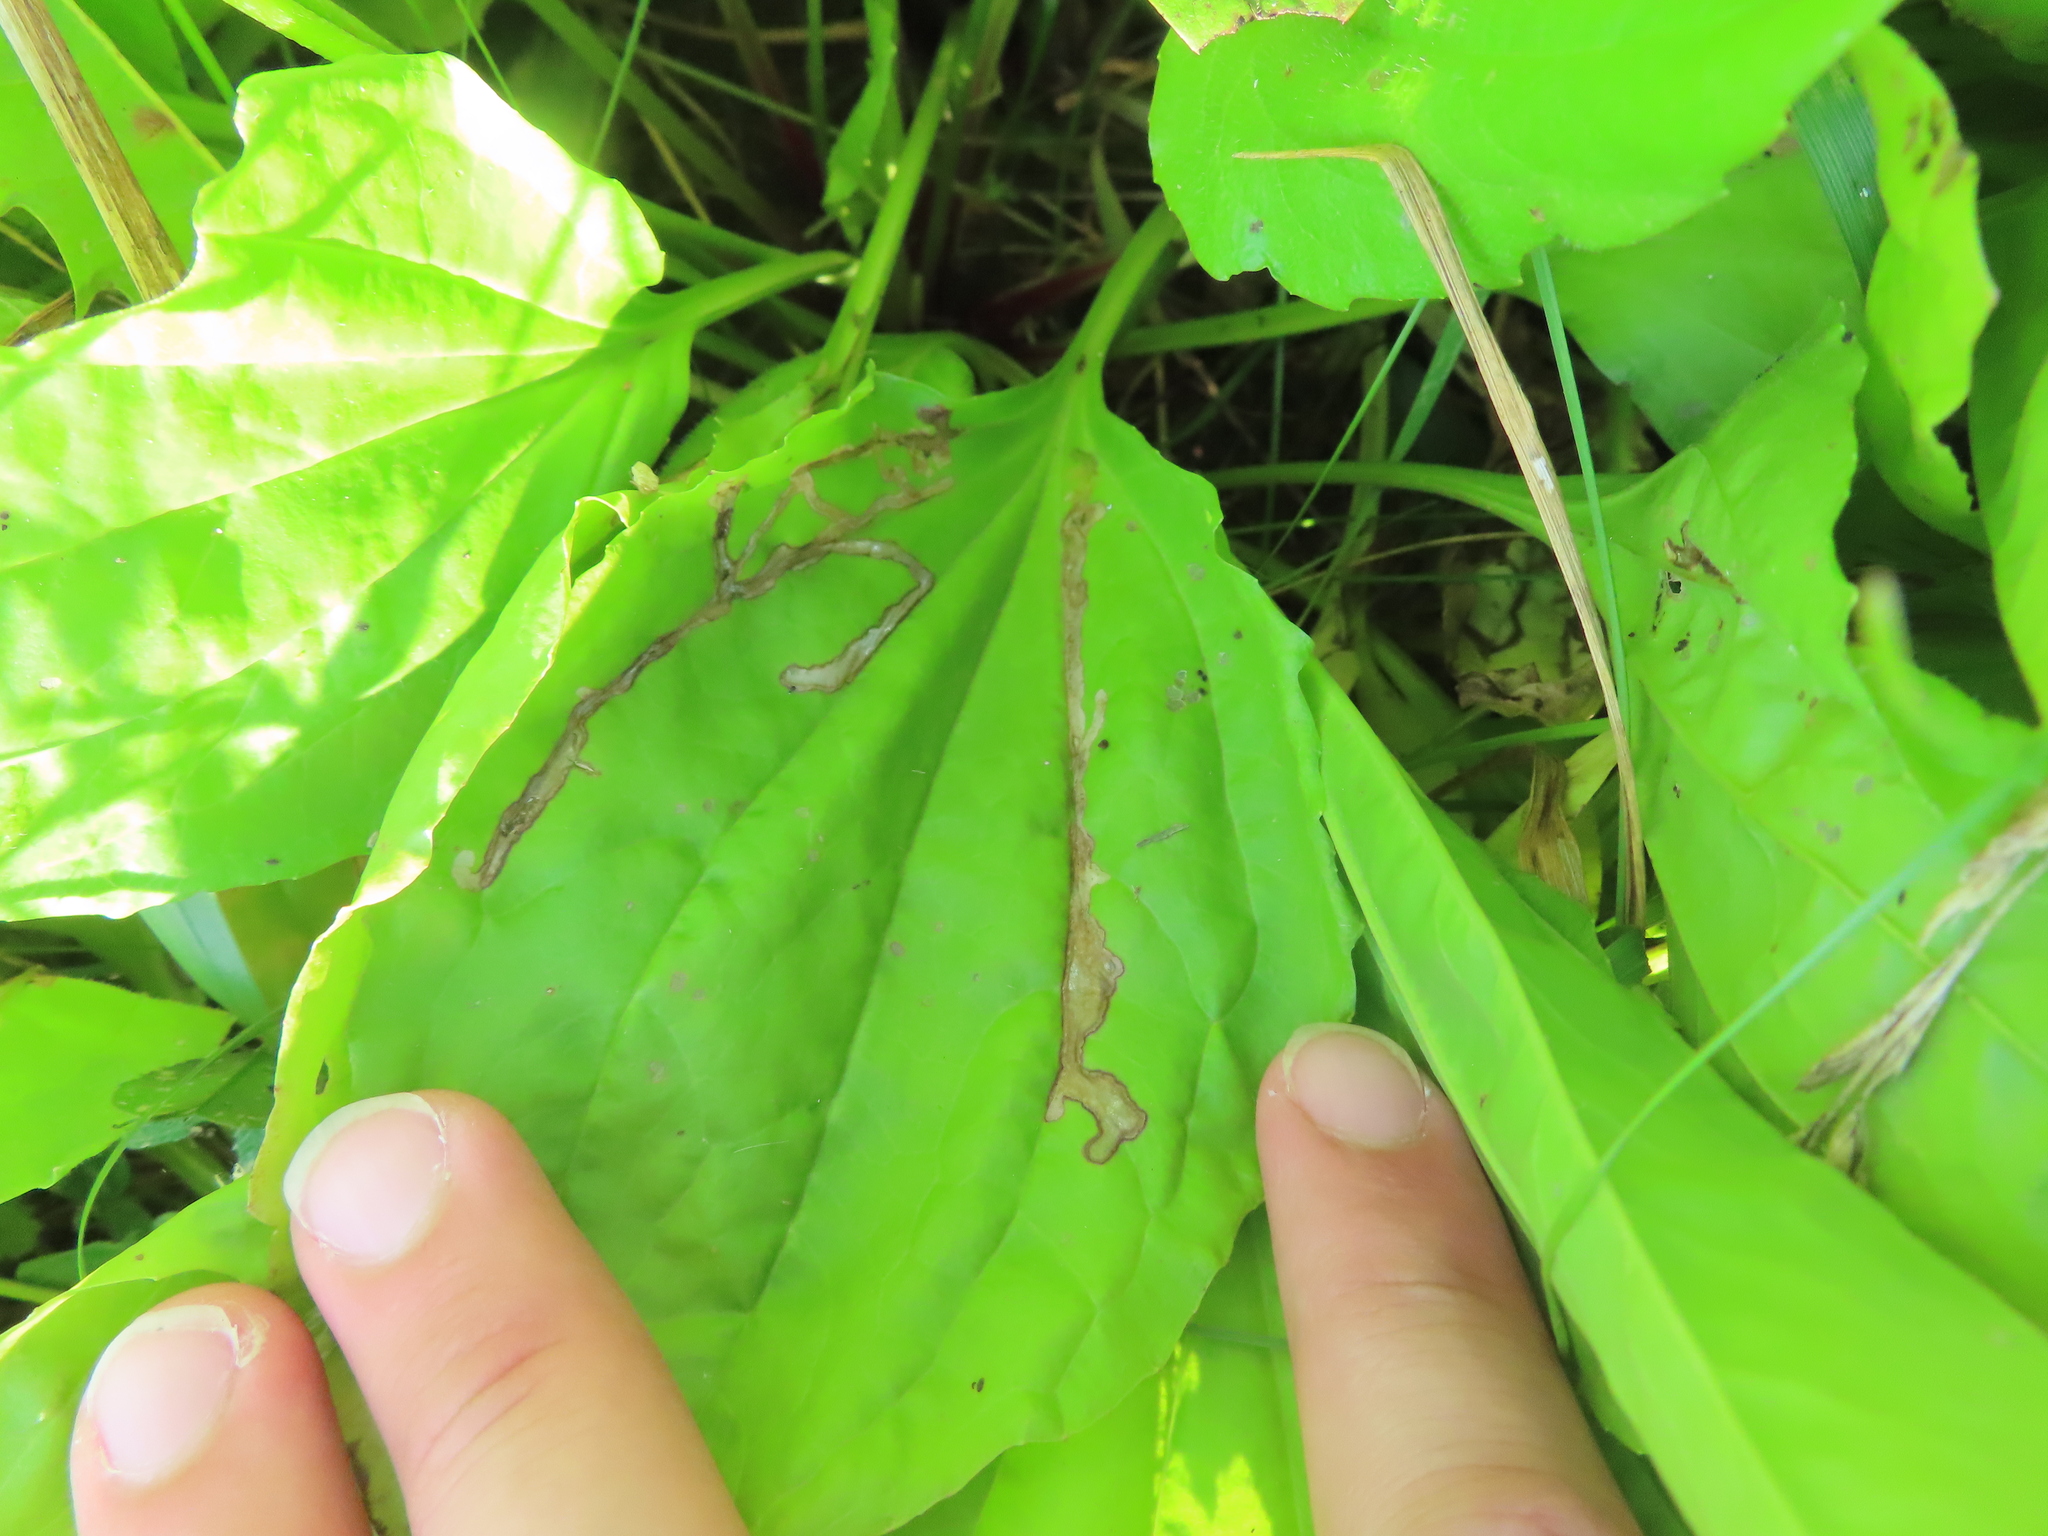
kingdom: Animalia
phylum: Arthropoda
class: Insecta
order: Coleoptera
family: Chrysomelidae
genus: Dibolia
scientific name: Dibolia borealis
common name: Northern plantain flea beetle
